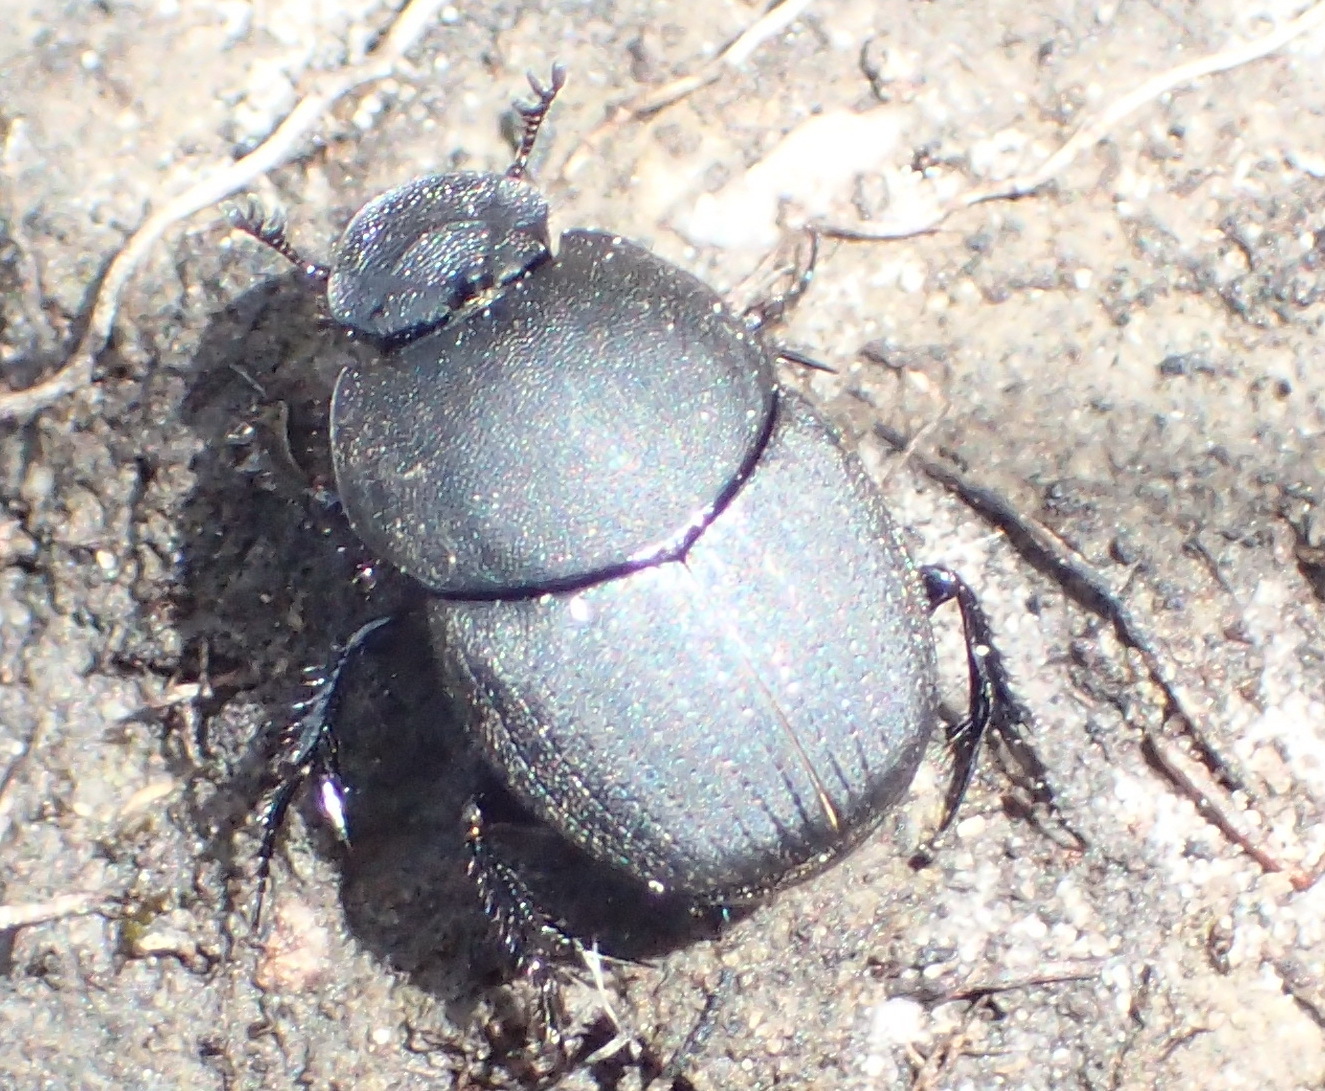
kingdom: Animalia
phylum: Arthropoda
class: Insecta
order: Coleoptera
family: Scarabaeidae
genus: Onthophagus
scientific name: Onthophagus giraffa
